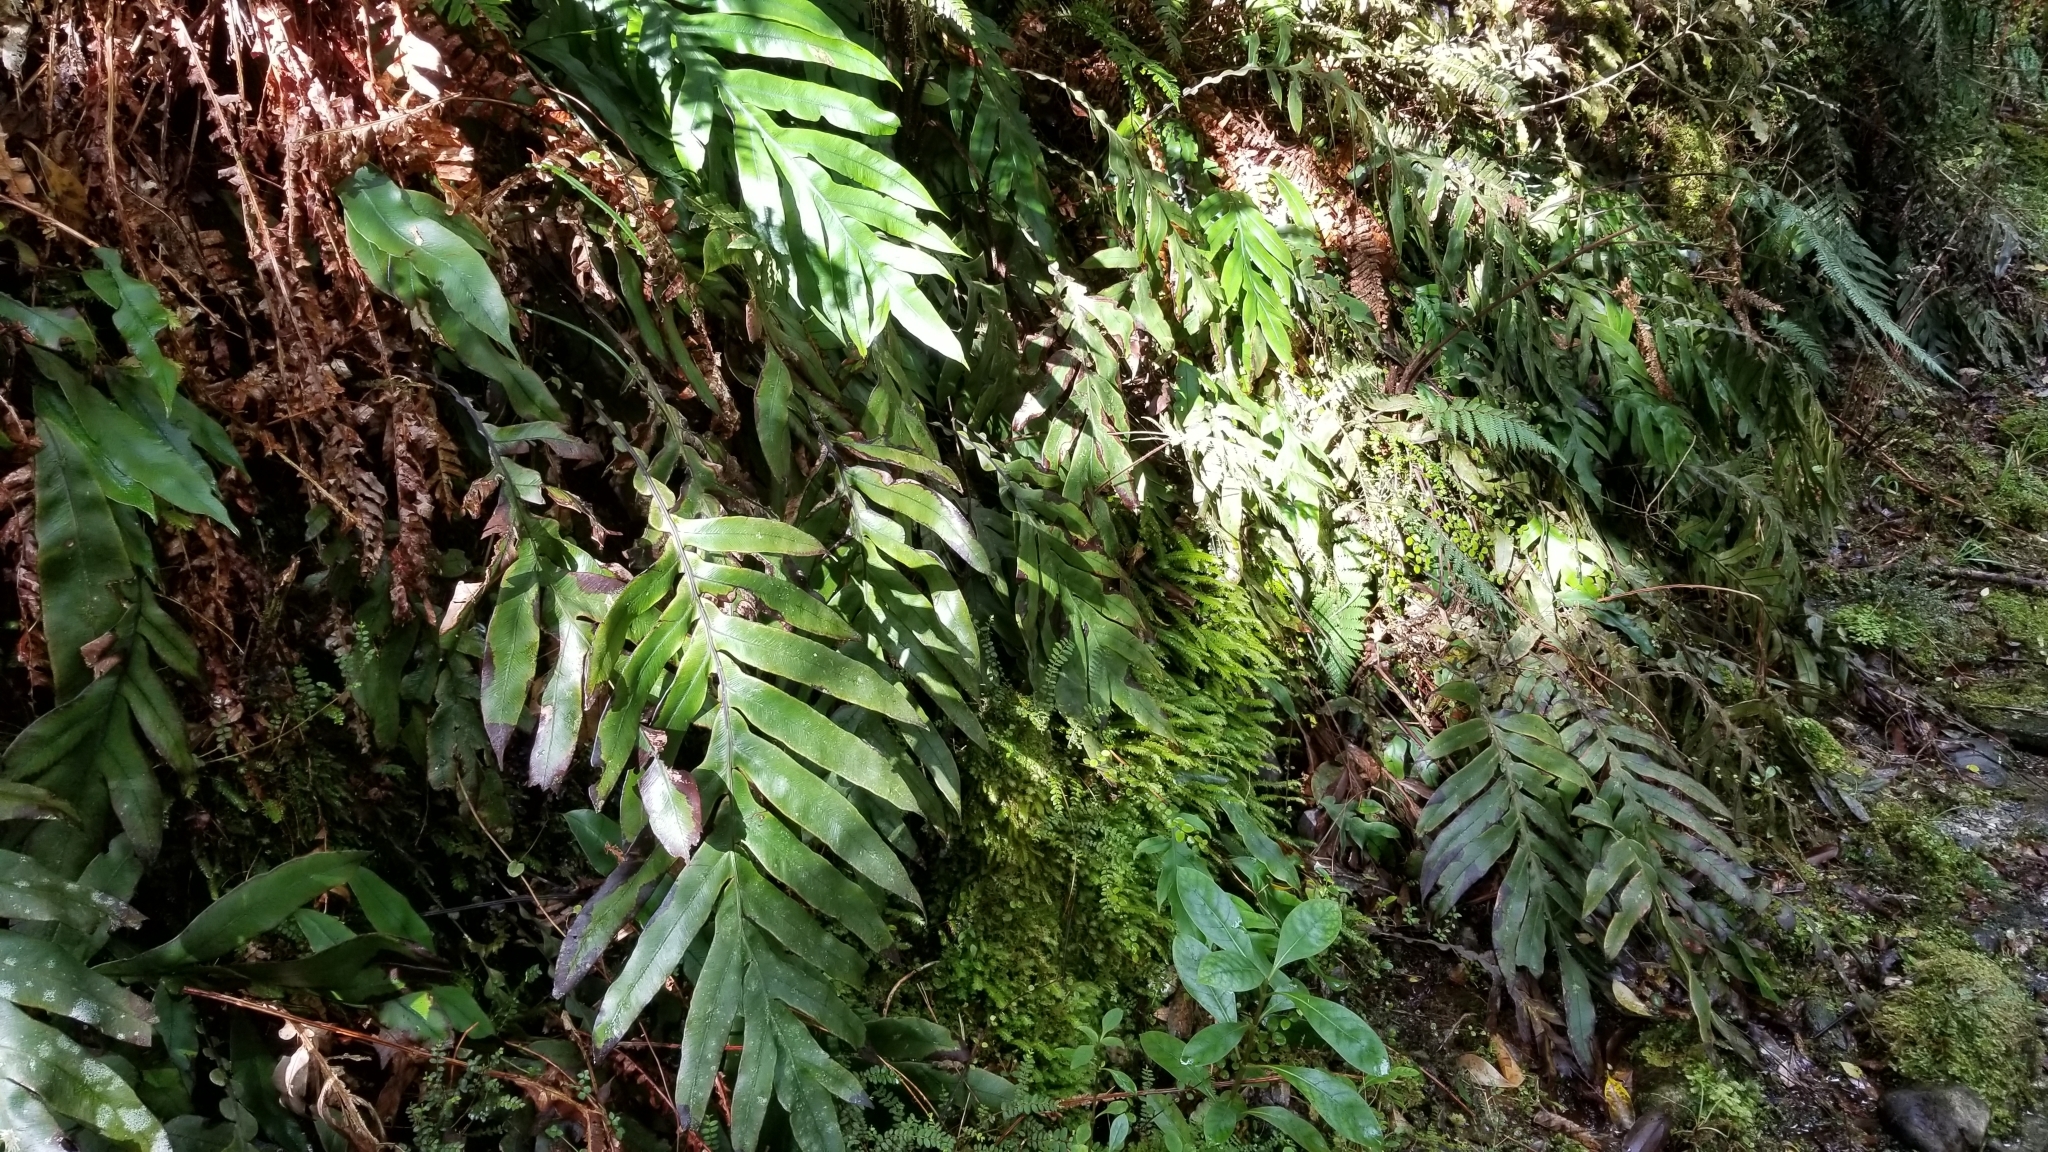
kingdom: Plantae
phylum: Tracheophyta
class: Polypodiopsida
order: Polypodiales
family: Blechnaceae
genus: Austroblechnum
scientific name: Austroblechnum colensoi
